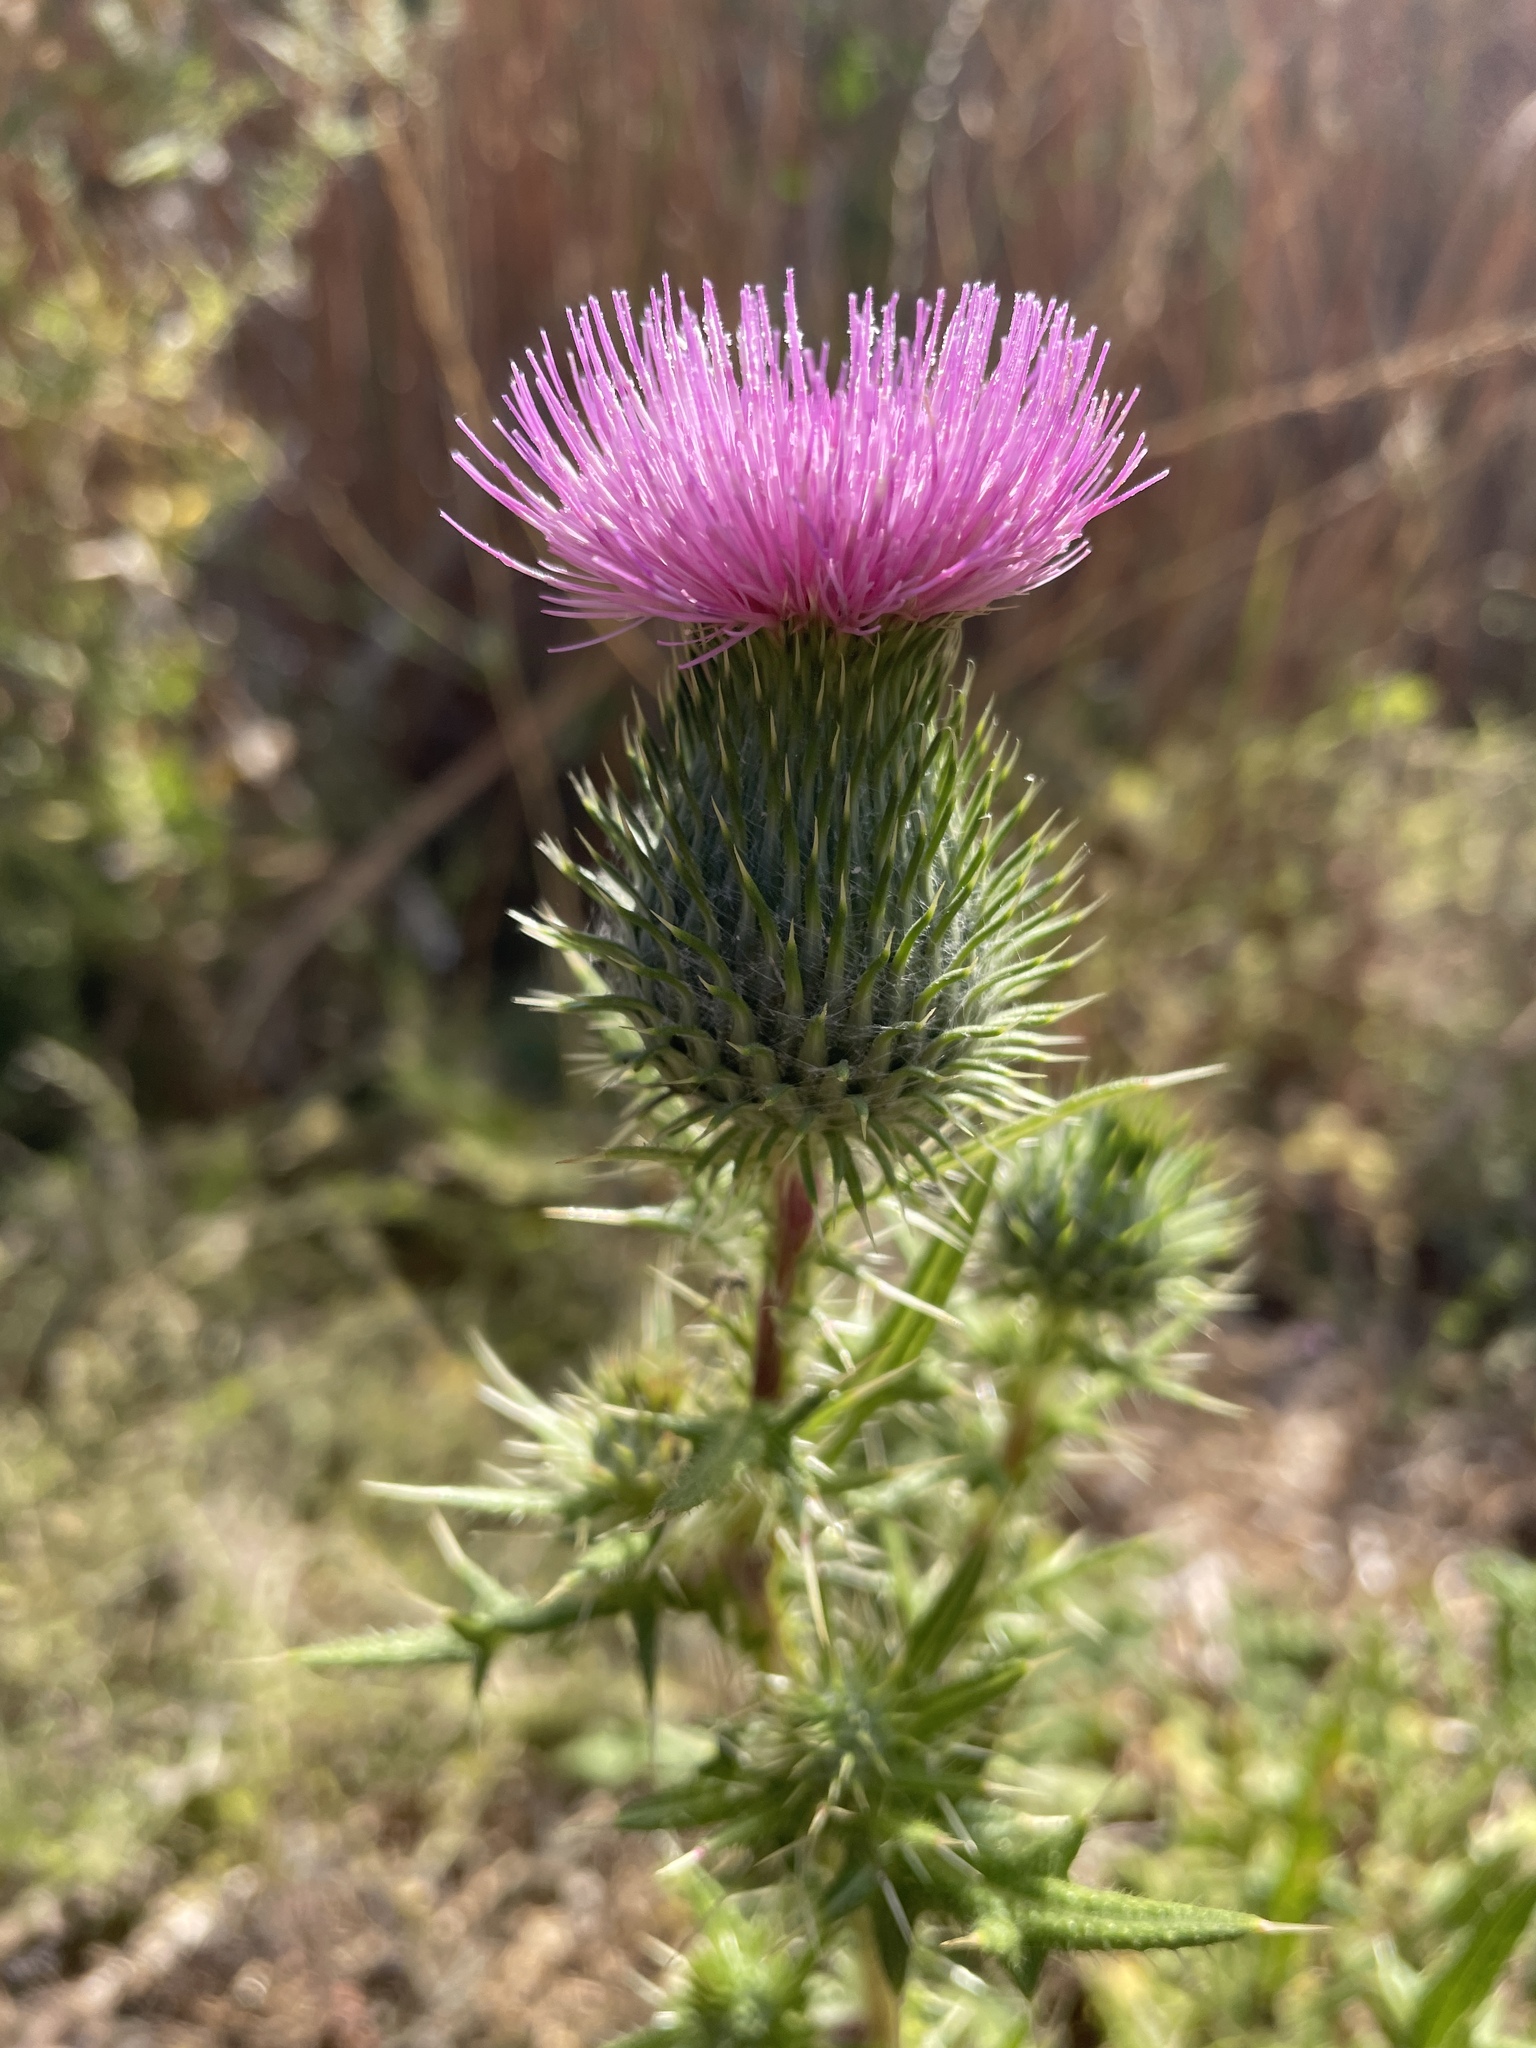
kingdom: Plantae
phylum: Tracheophyta
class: Magnoliopsida
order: Asterales
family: Asteraceae
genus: Cirsium
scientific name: Cirsium vulgare
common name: Bull thistle
